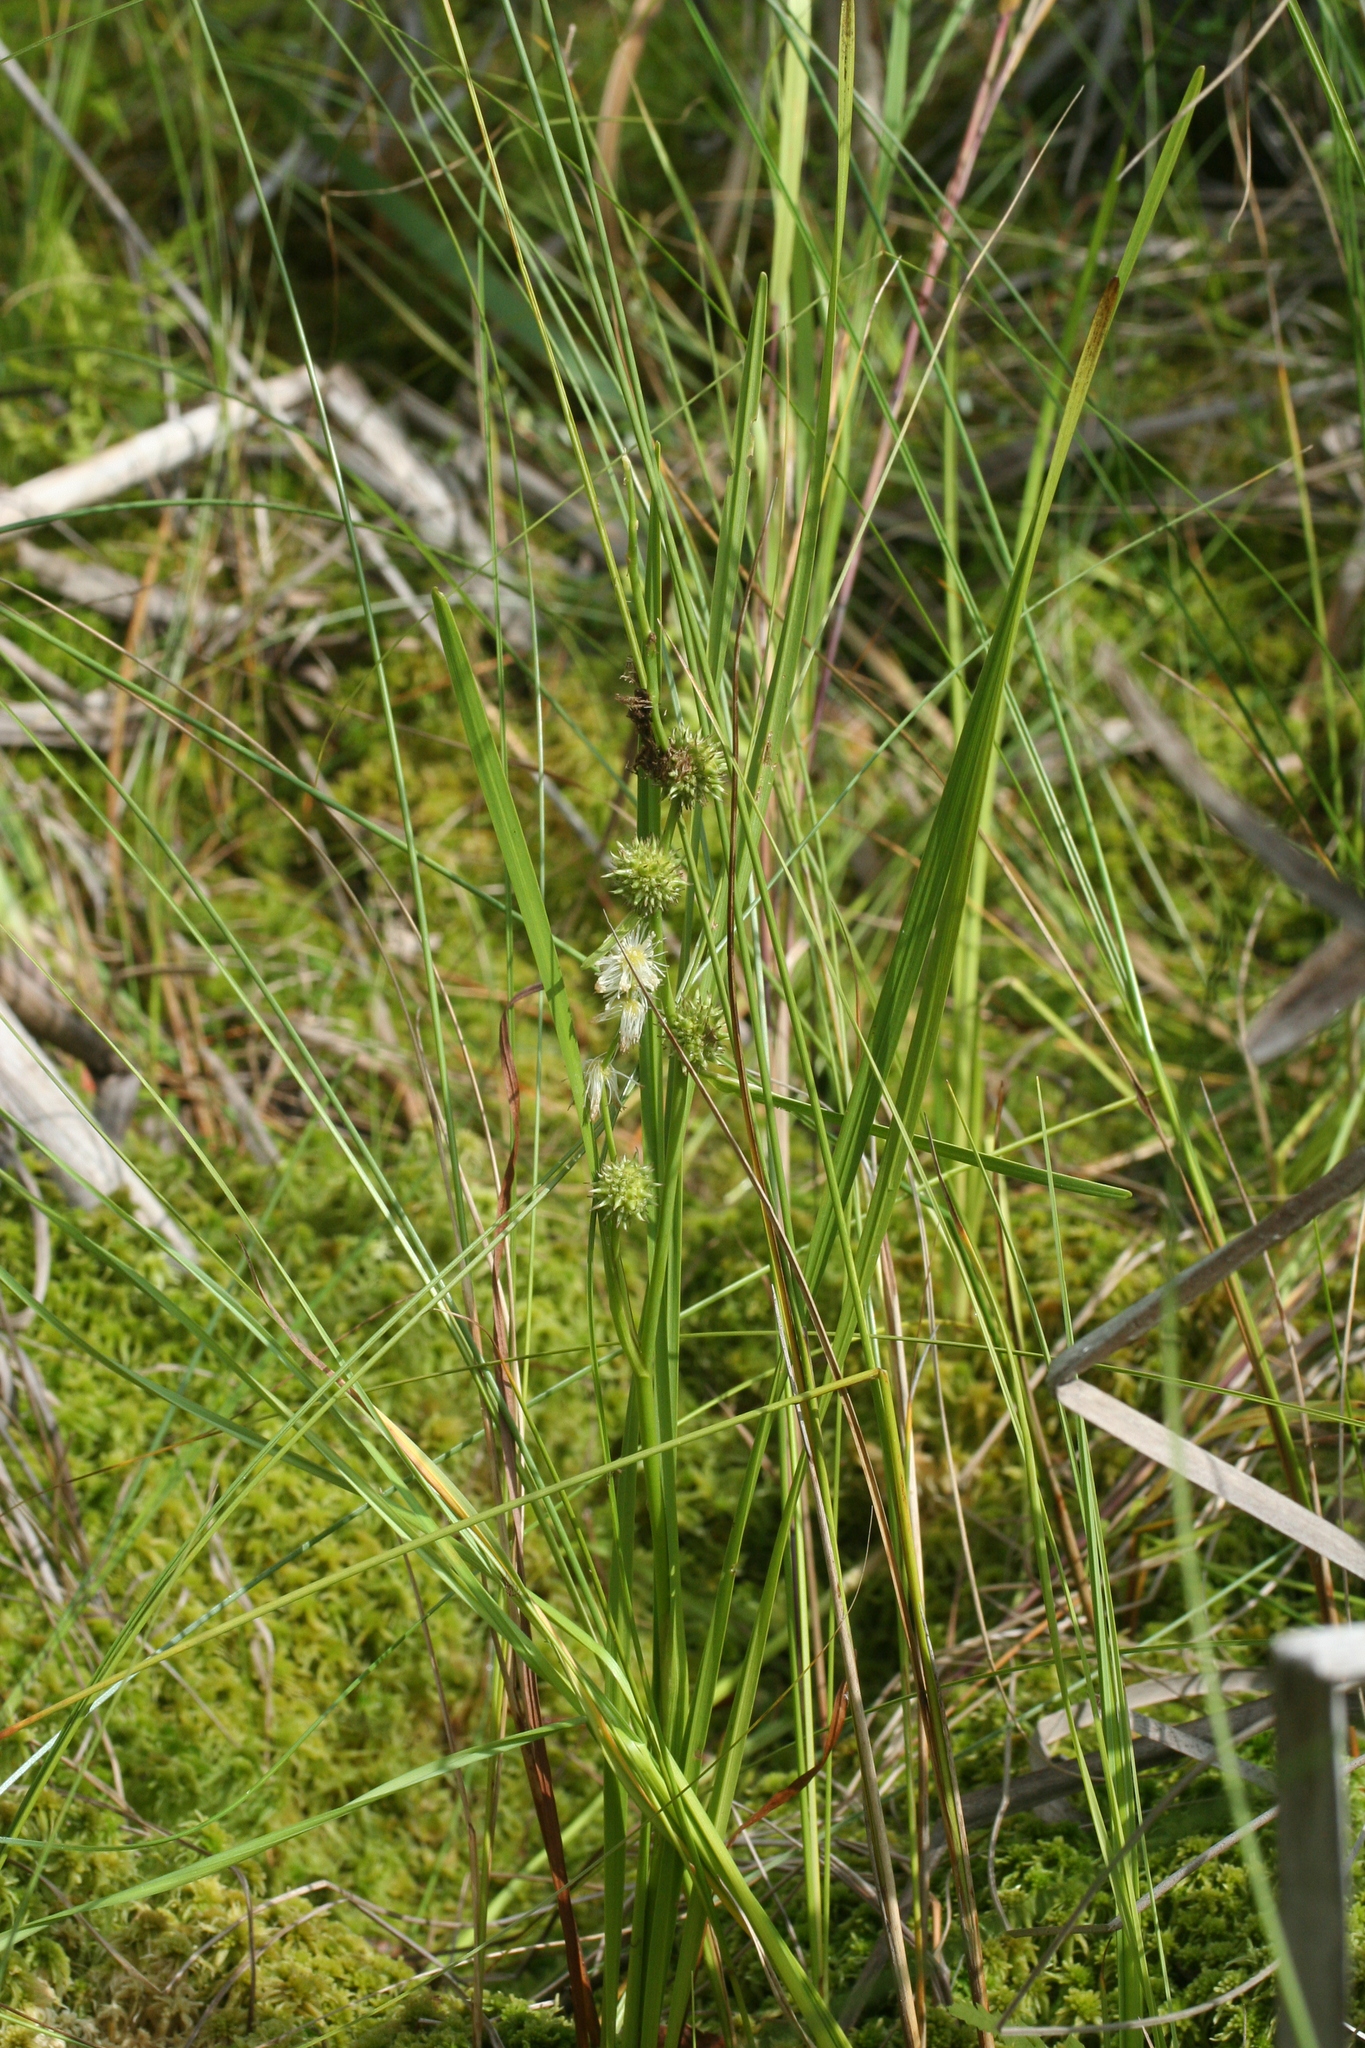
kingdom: Plantae
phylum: Tracheophyta
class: Liliopsida
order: Poales
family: Typhaceae
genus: Sparganium
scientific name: Sparganium subglobosum
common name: Burr­-reed
